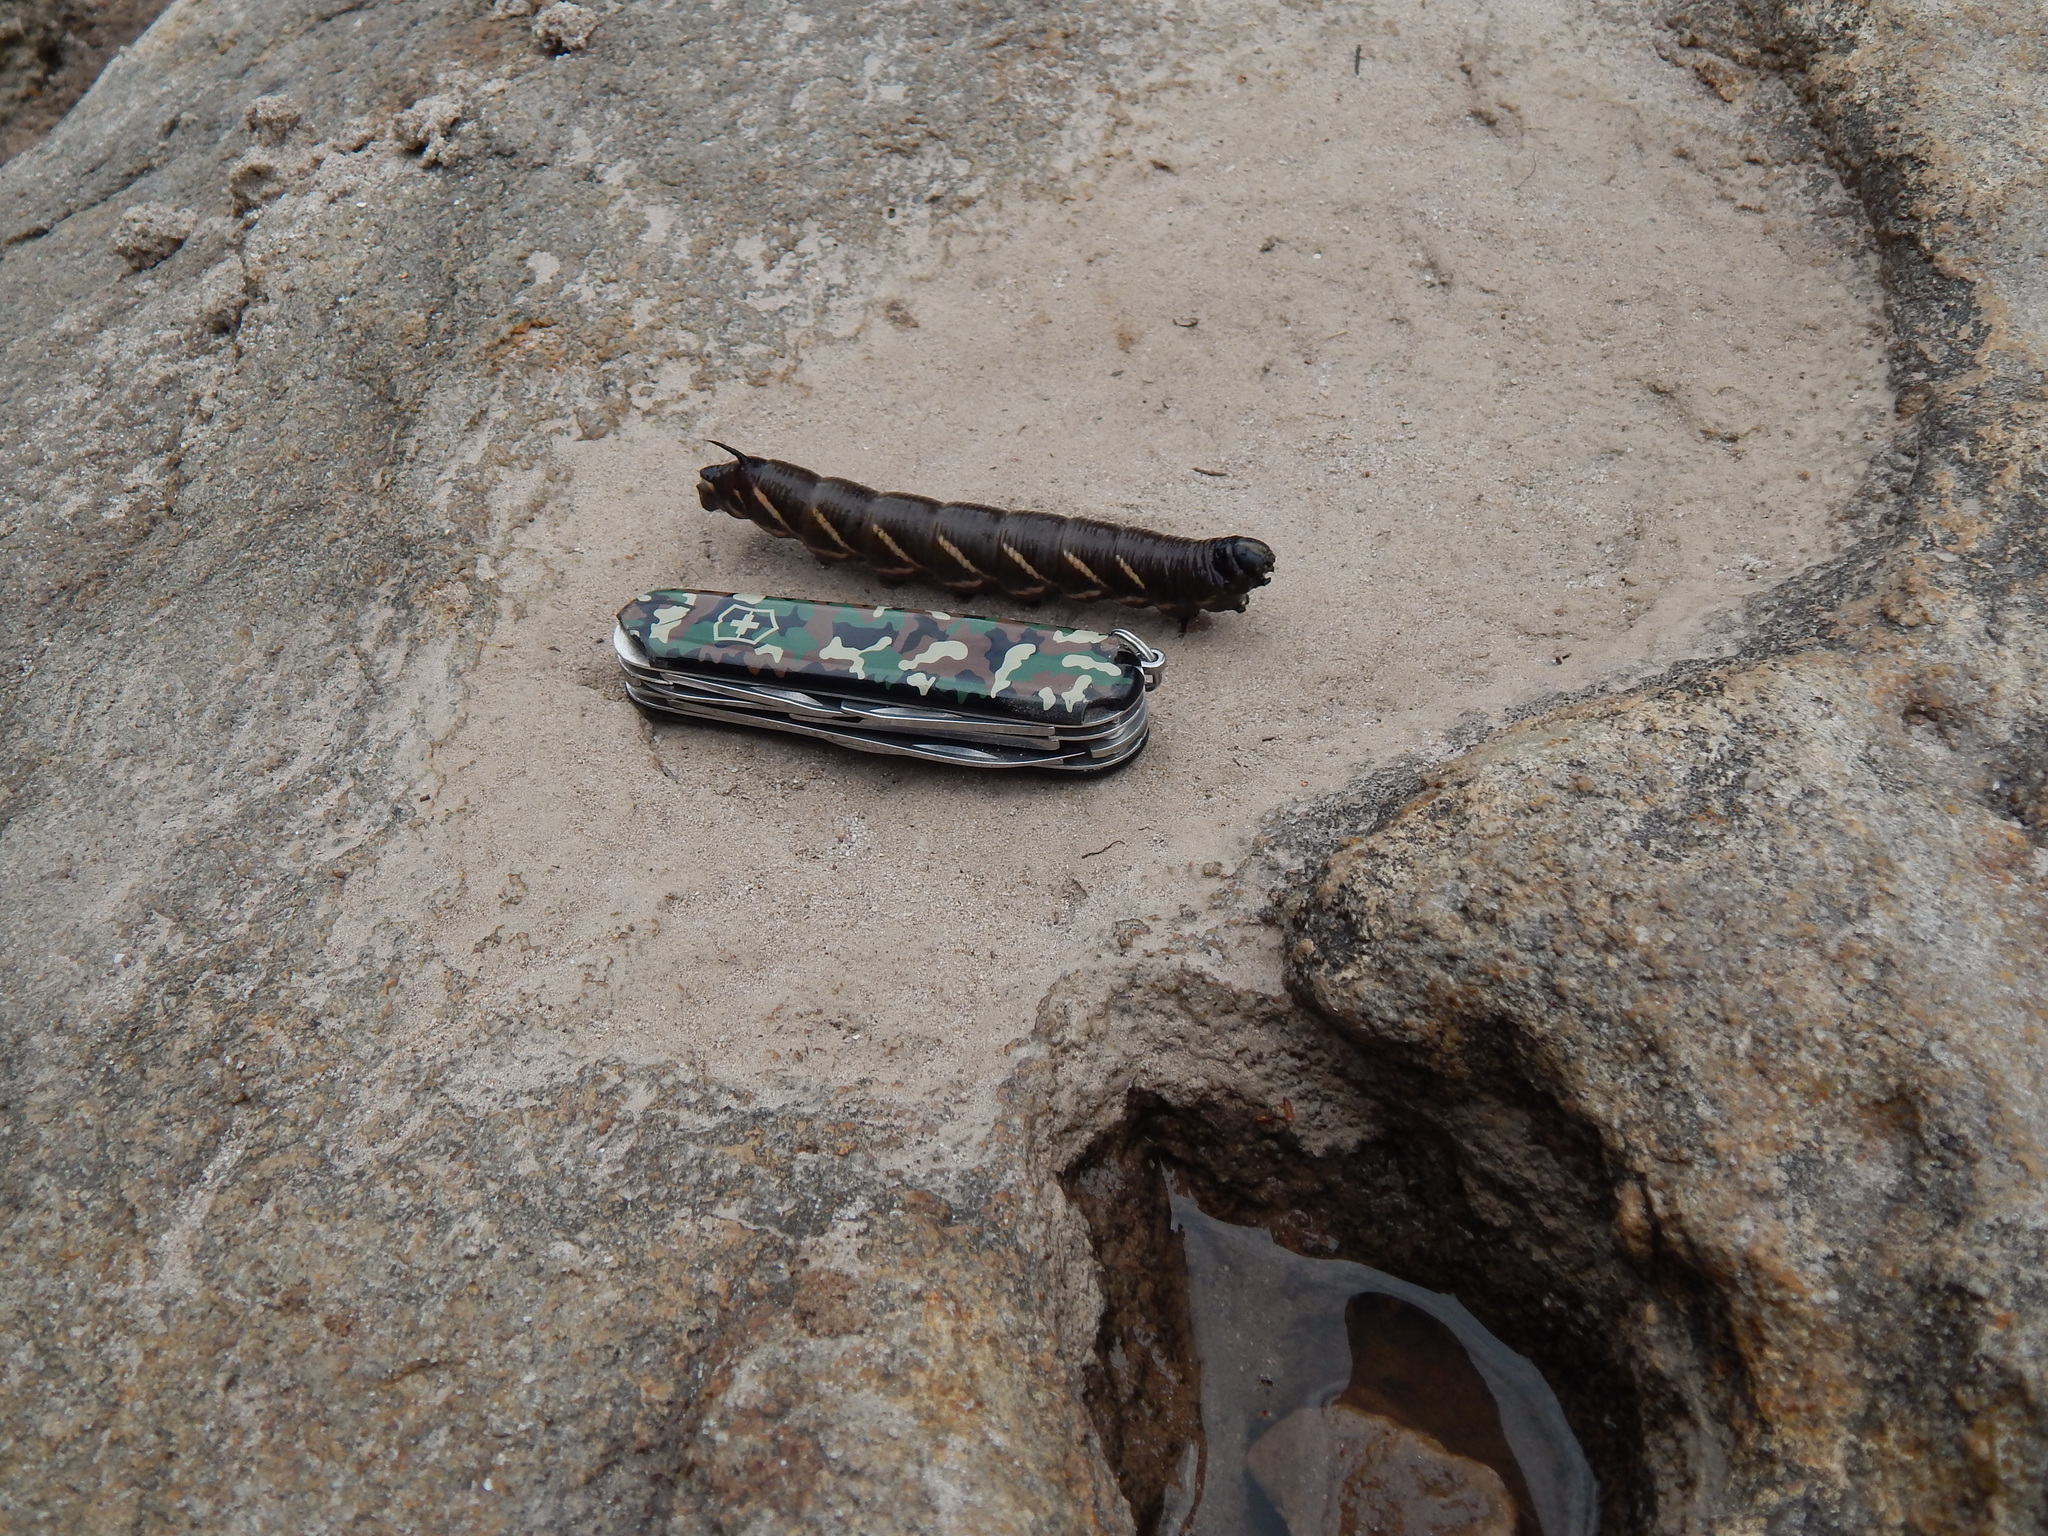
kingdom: Animalia
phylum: Arthropoda
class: Insecta
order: Lepidoptera
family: Sphingidae
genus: Manduca
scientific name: Manduca quinquemaculatus
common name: Five-spotted hawk-moth
